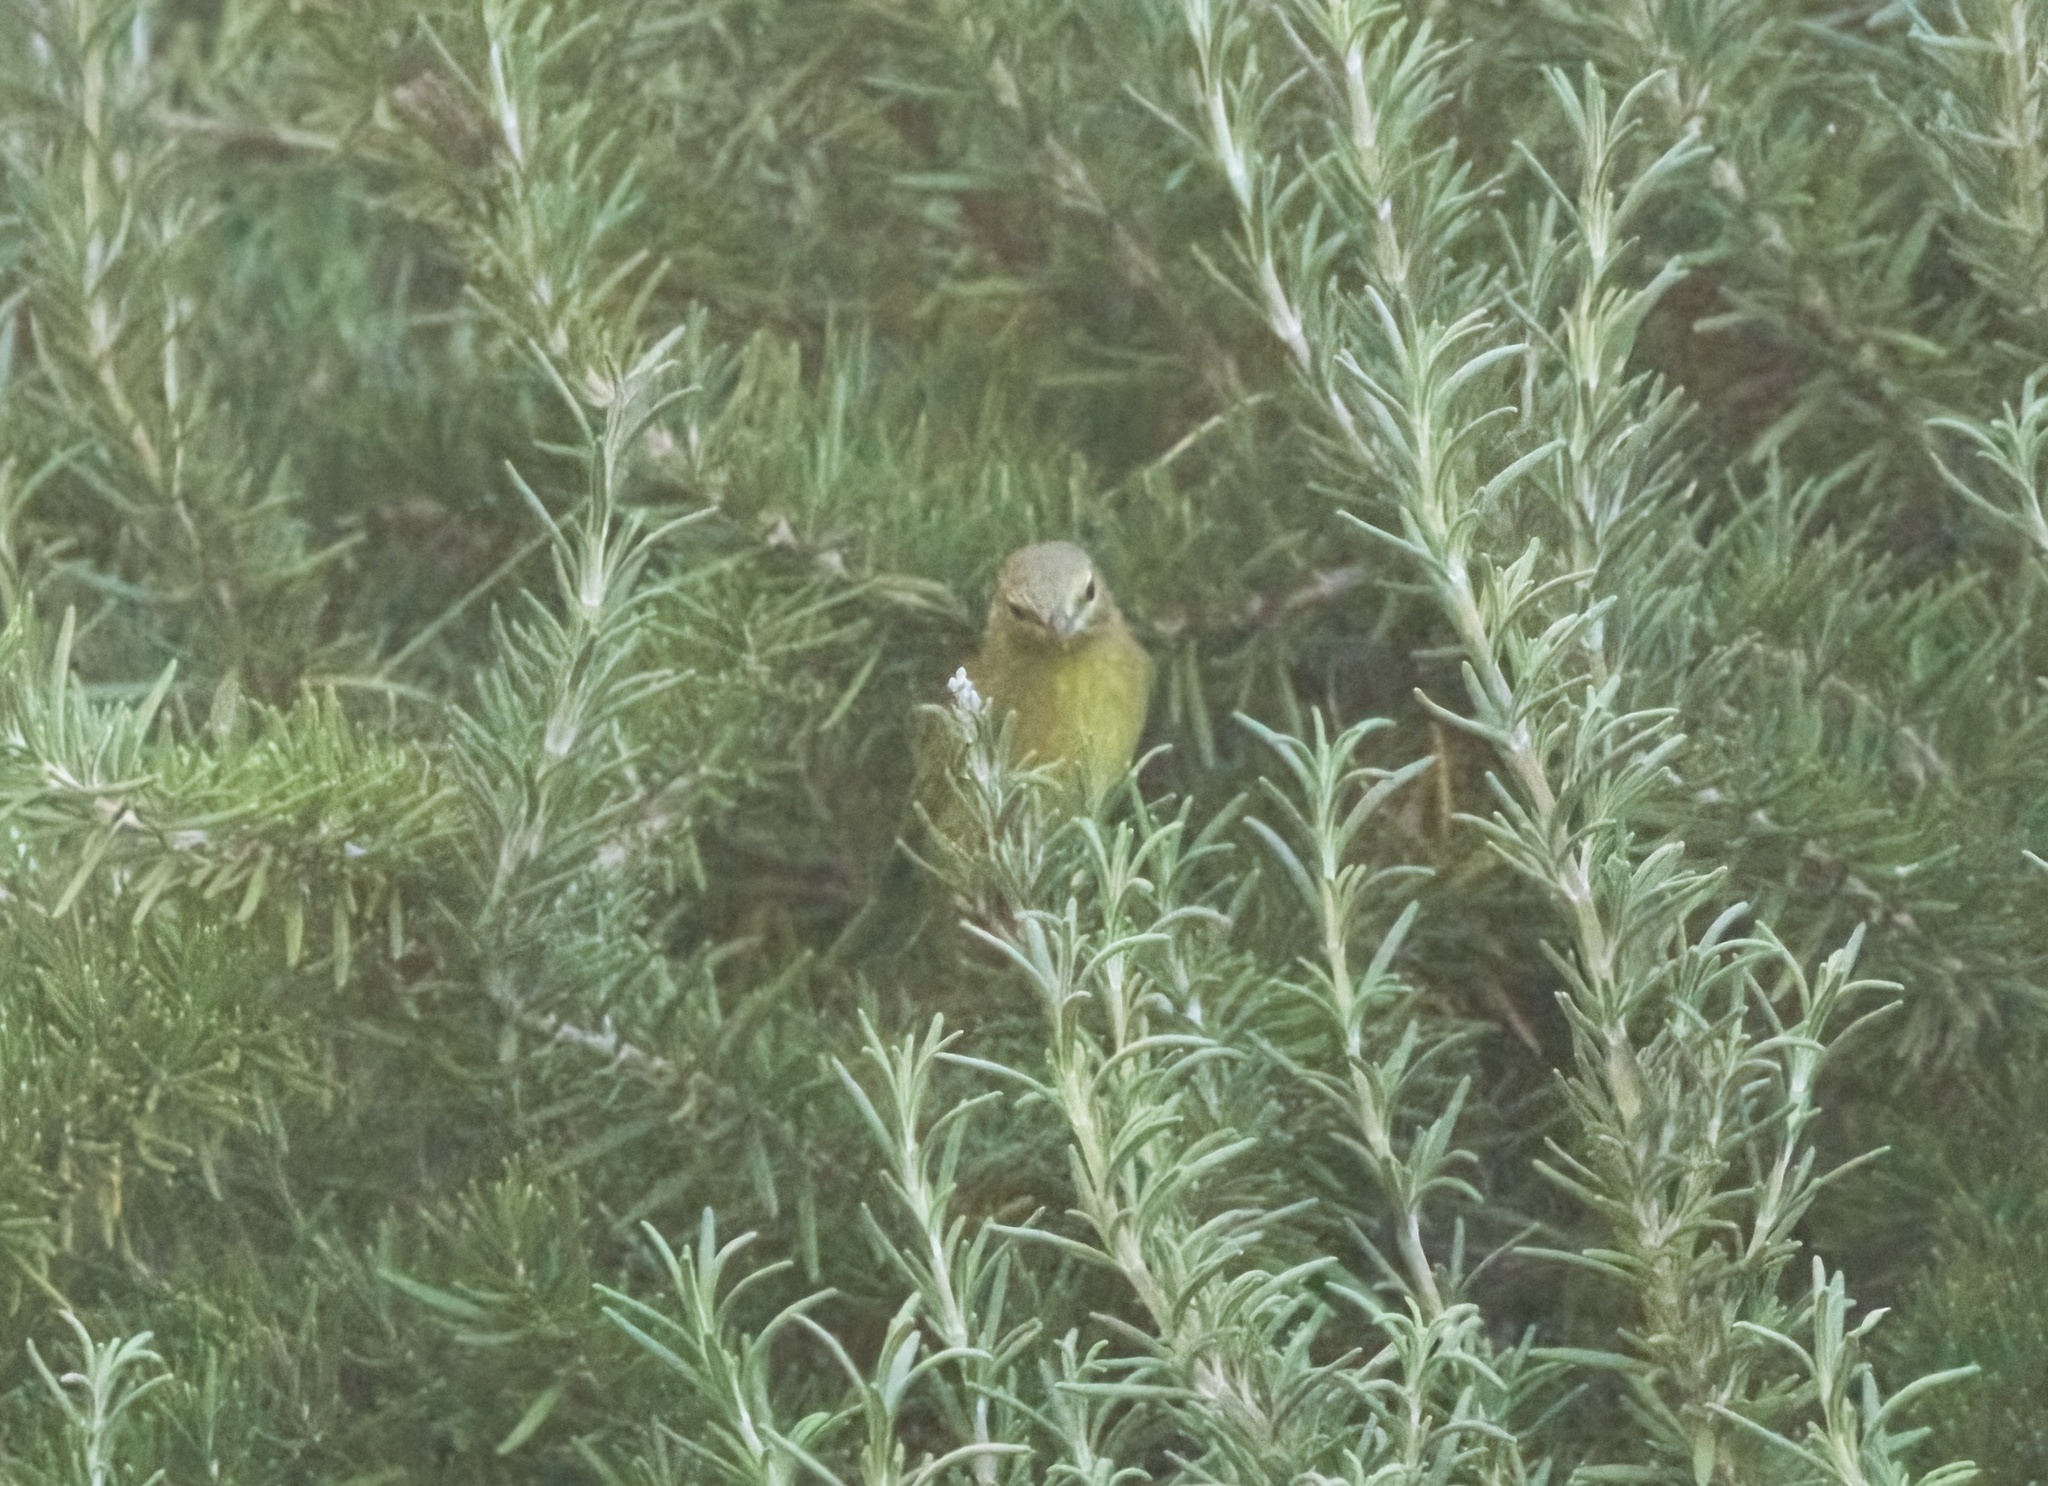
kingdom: Animalia
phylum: Chordata
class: Aves
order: Passeriformes
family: Parulidae
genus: Leiothlypis
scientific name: Leiothlypis celata
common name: Orange-crowned warbler
